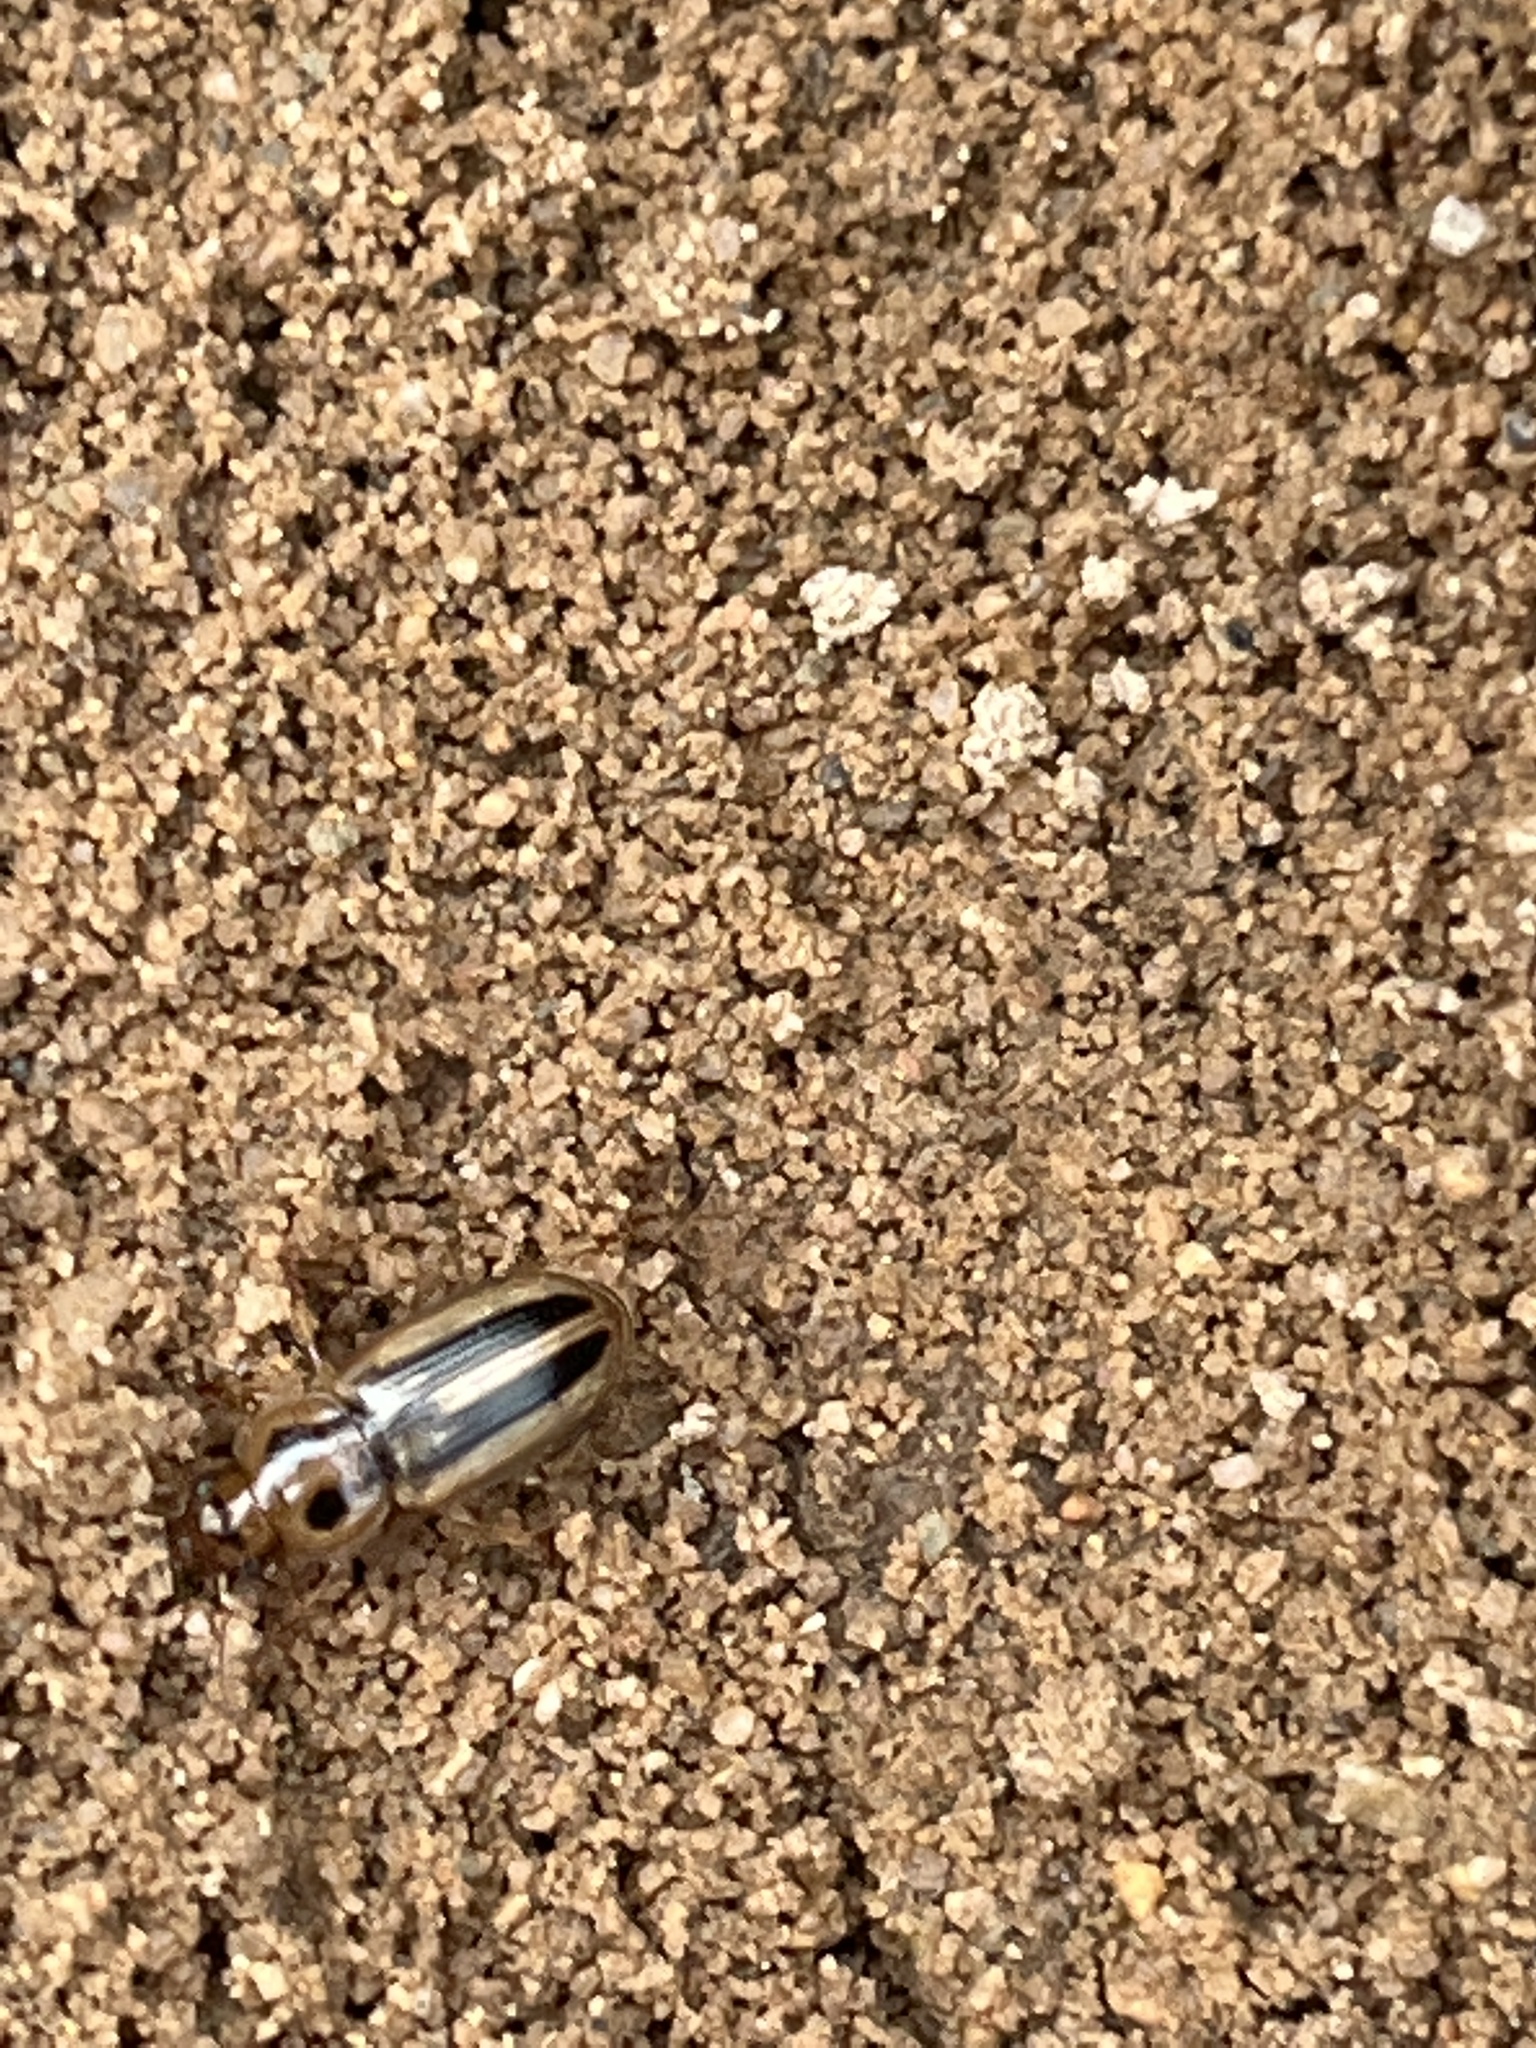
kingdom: Animalia
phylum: Arthropoda
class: Insecta
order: Coleoptera
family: Carabidae
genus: Stenolophus
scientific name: Stenolophus lineola
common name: Lined stenolophus
